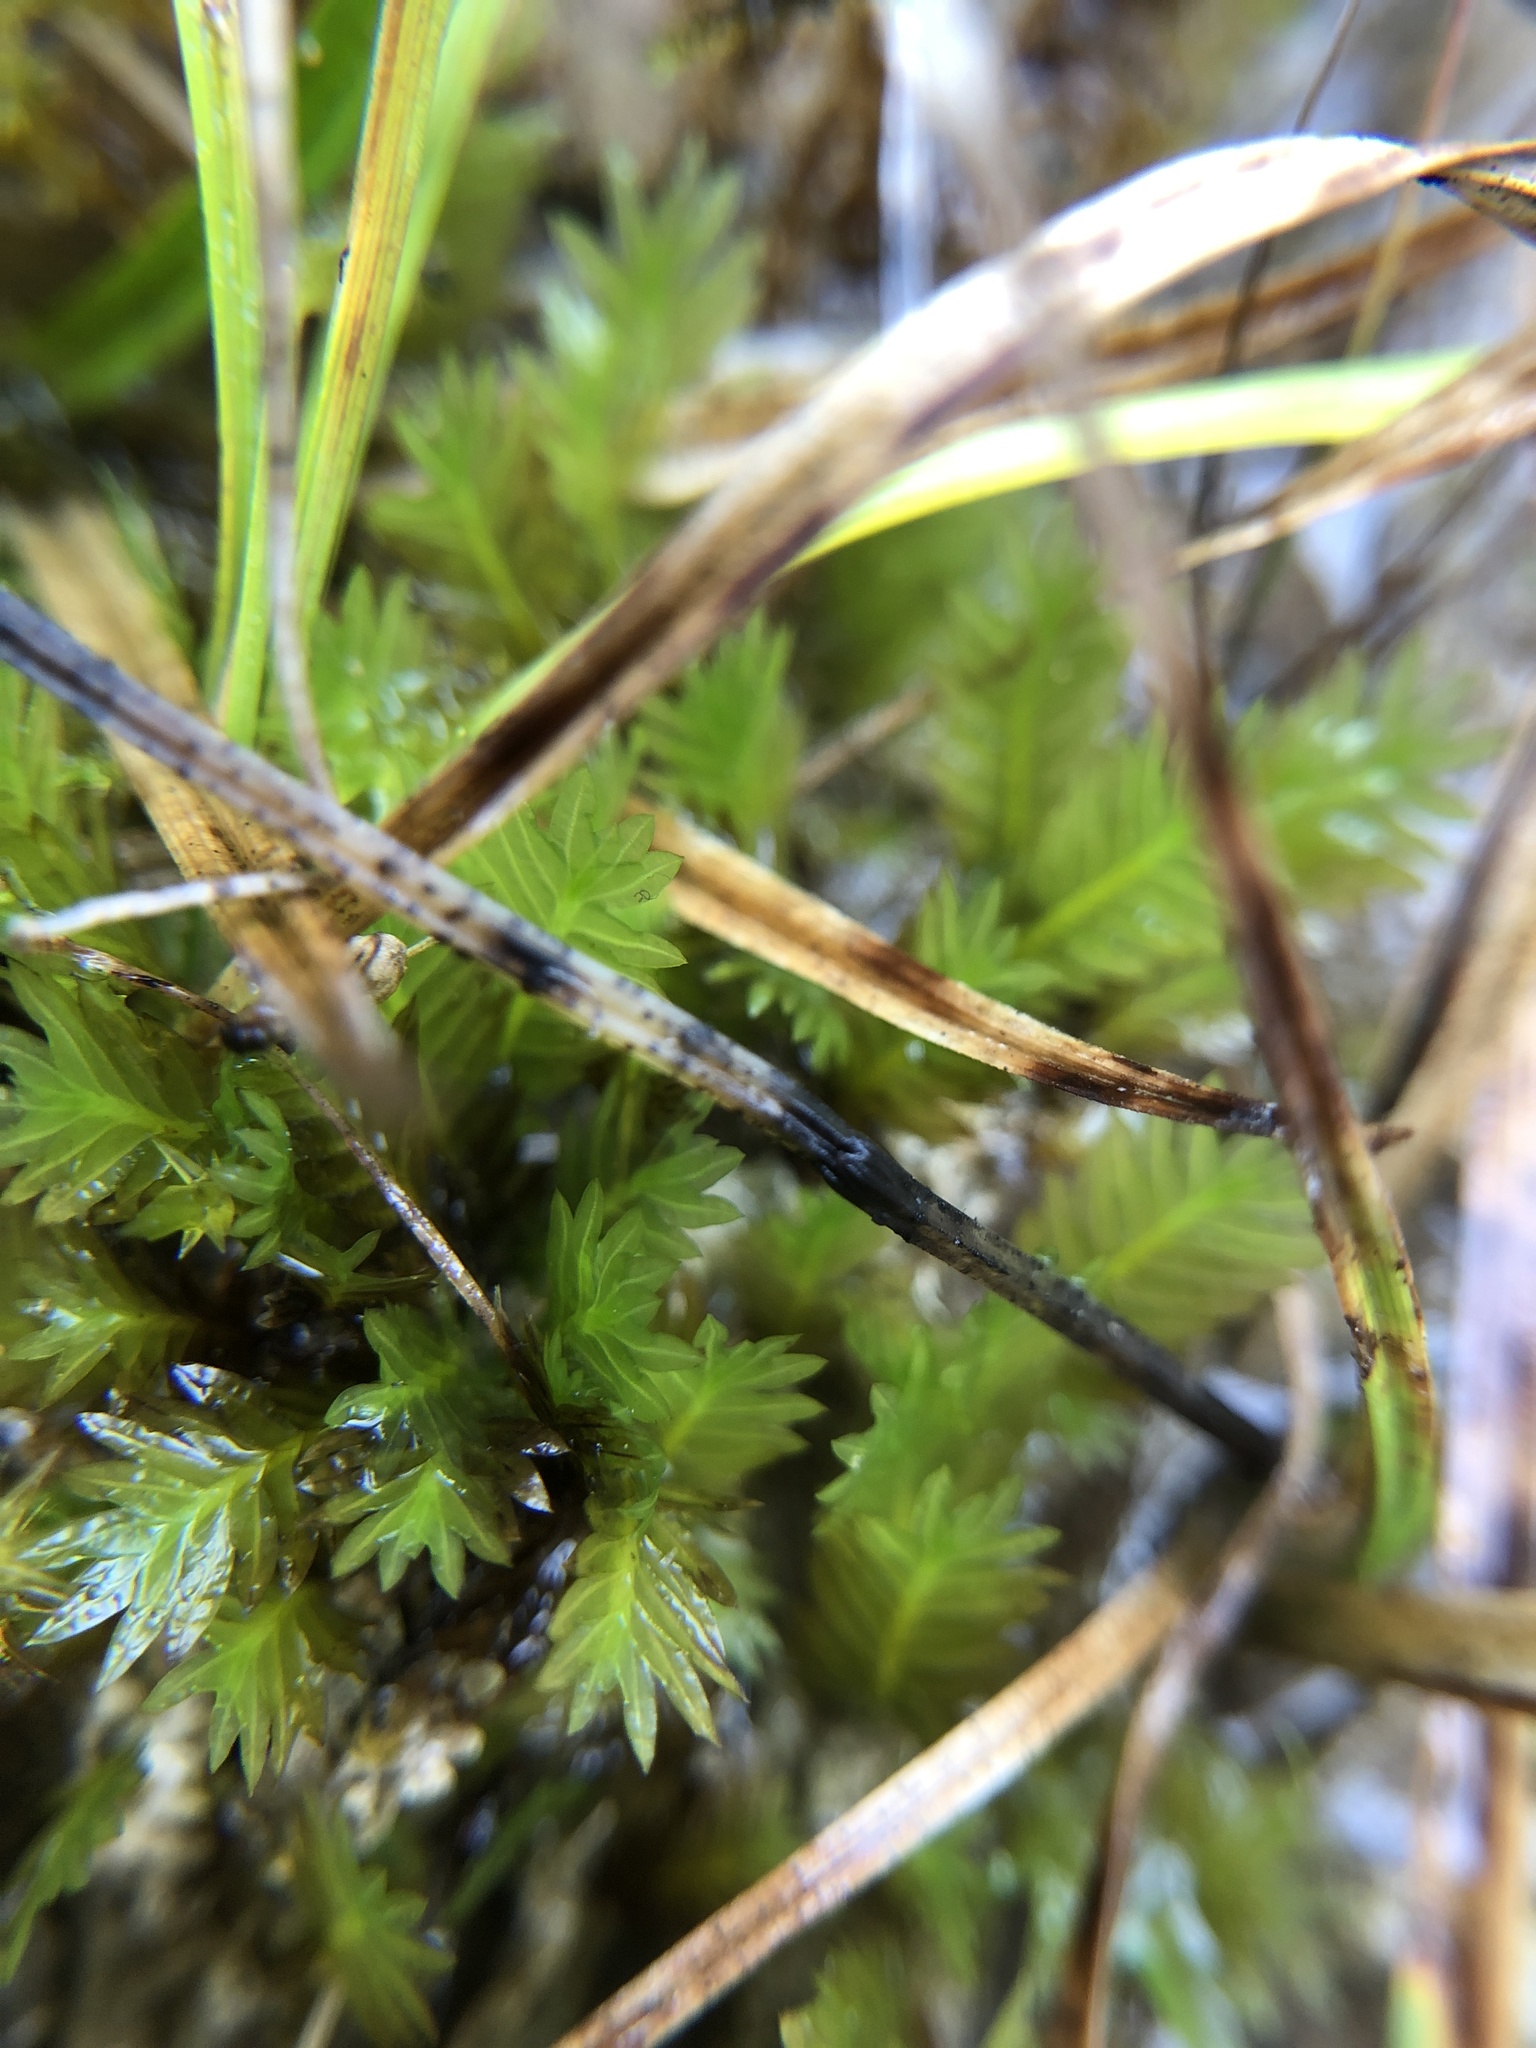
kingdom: Plantae
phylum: Bryophyta
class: Bryopsida
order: Dicranales
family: Fissidentaceae
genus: Fissidens
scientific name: Fissidens adianthoides
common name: Maidenhair pocket moss
